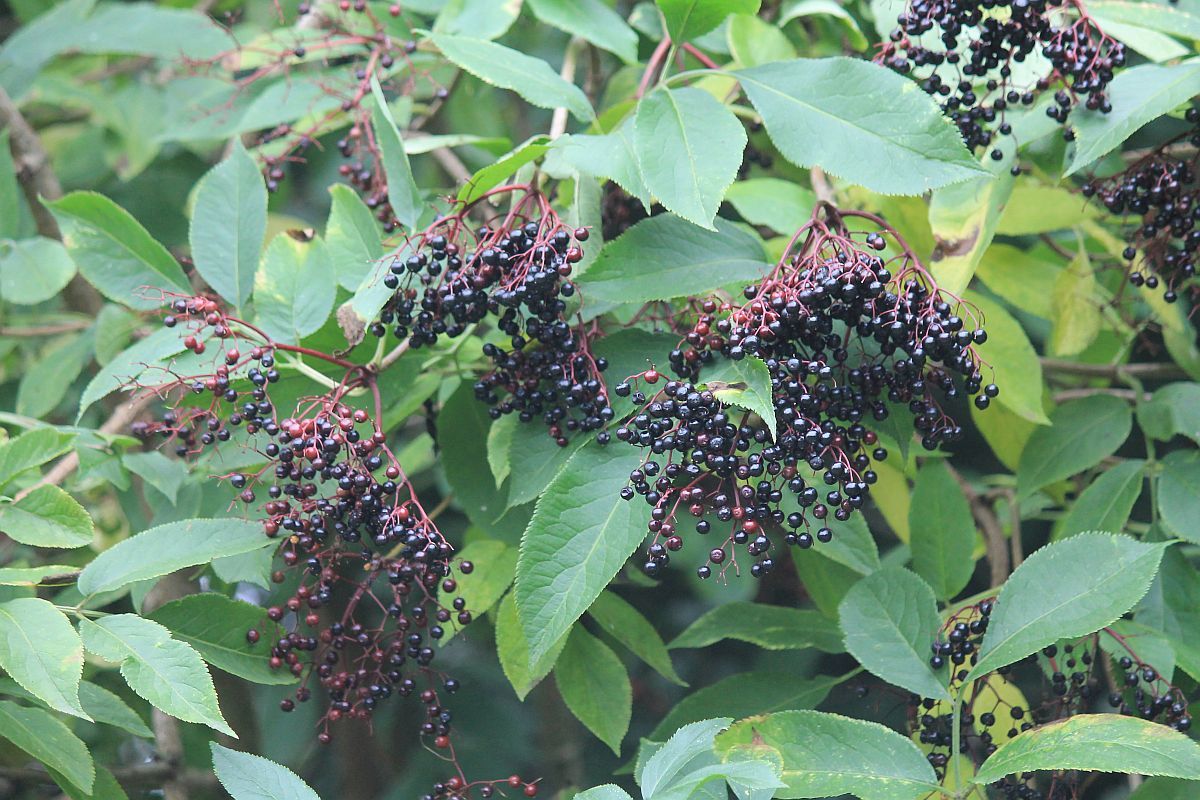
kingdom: Plantae
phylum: Tracheophyta
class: Magnoliopsida
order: Dipsacales
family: Viburnaceae
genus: Sambucus
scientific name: Sambucus nigra
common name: Elder
